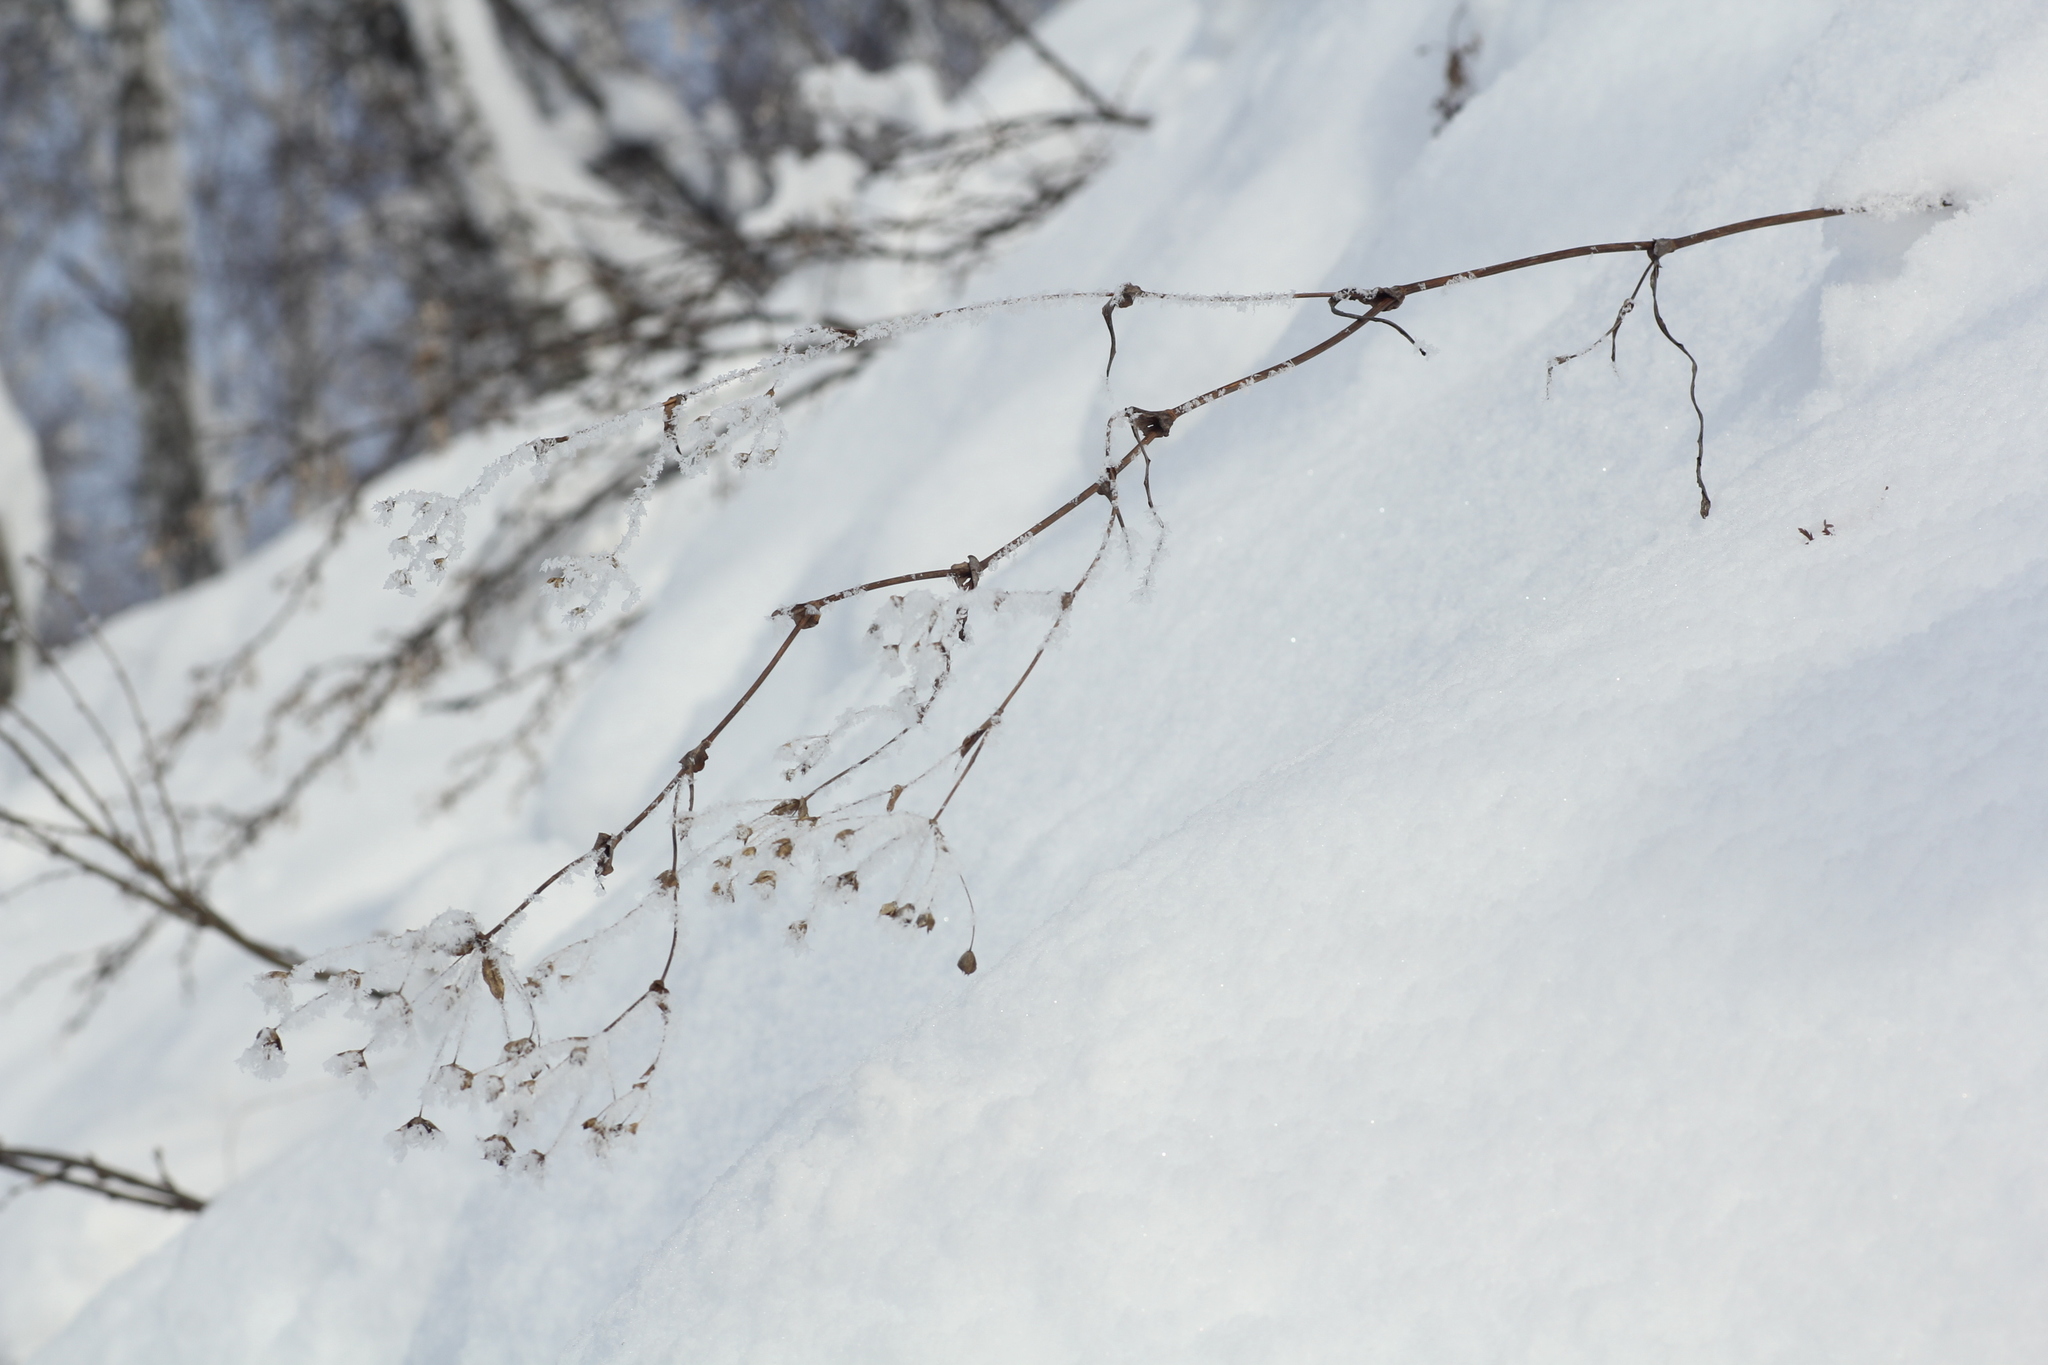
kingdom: Plantae
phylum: Tracheophyta
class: Magnoliopsida
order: Apiales
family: Apiaceae
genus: Bupleurum
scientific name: Bupleurum multinerve
